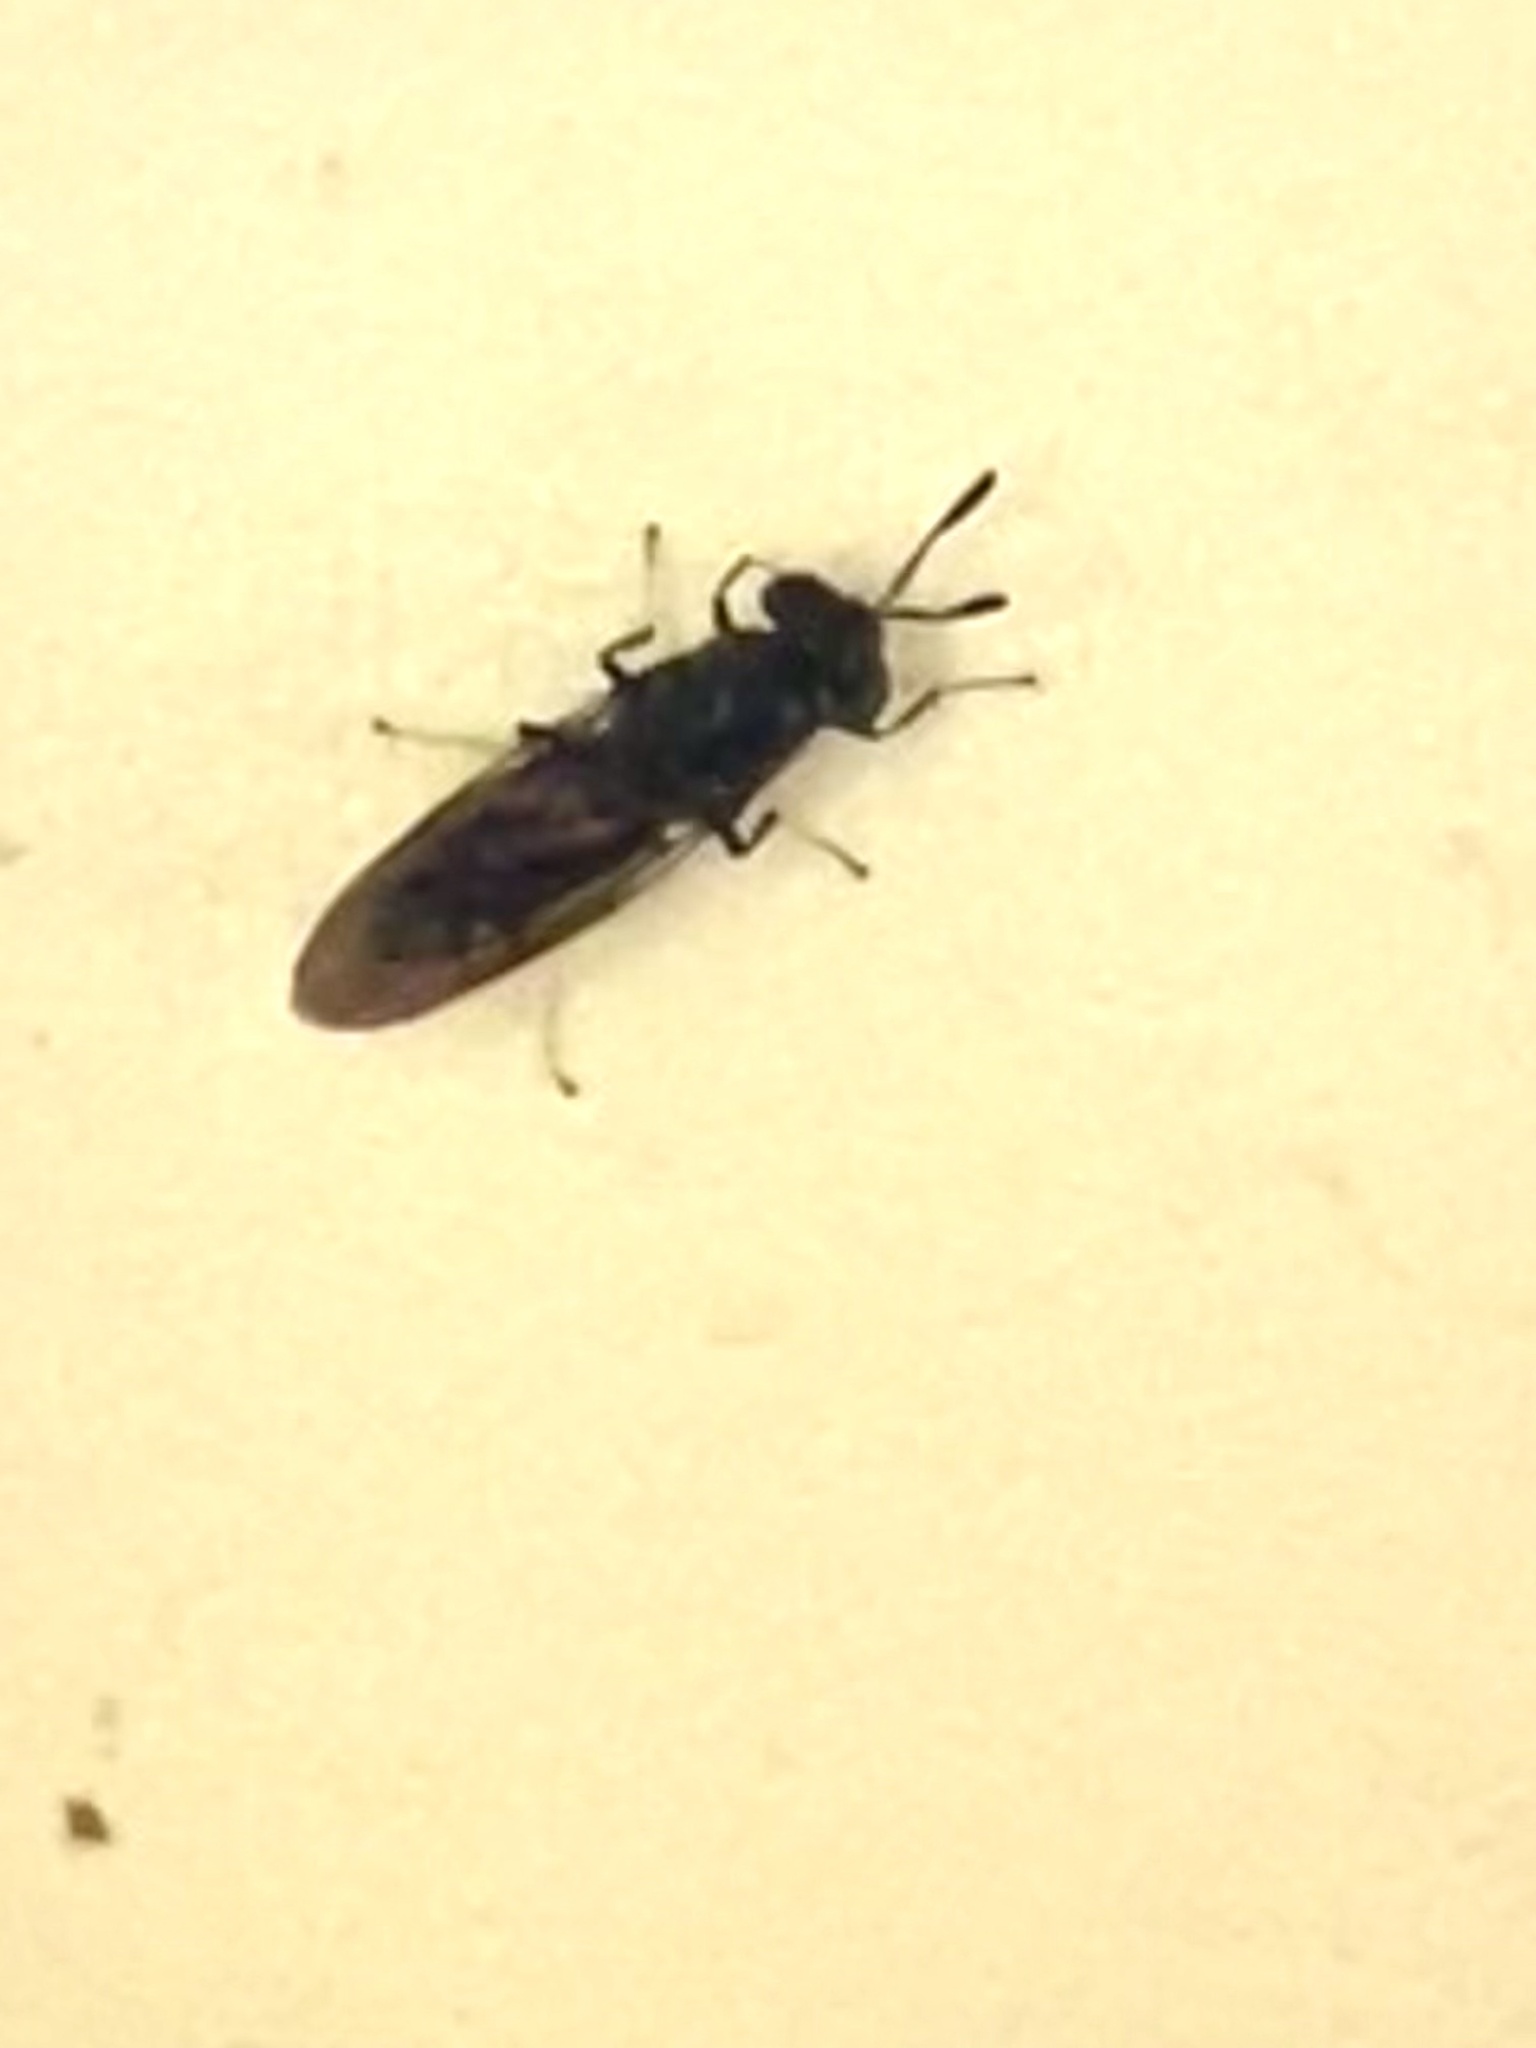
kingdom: Animalia
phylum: Arthropoda
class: Insecta
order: Diptera
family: Stratiomyidae
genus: Hermetia
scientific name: Hermetia illucens
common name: Black soldier fly
